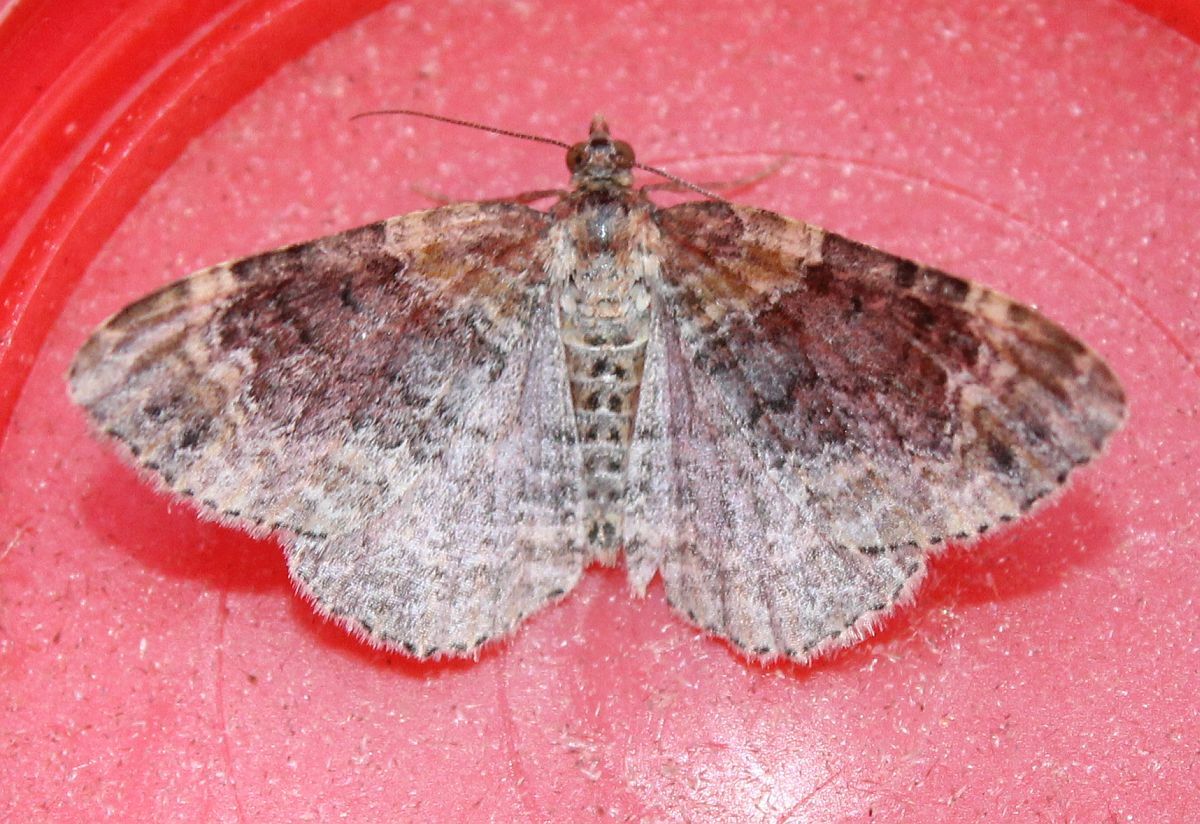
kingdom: Animalia
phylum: Arthropoda
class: Insecta
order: Lepidoptera
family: Geometridae
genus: Xanthorhoe
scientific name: Xanthorhoe spadicearia
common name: Red twin-spot carpet
